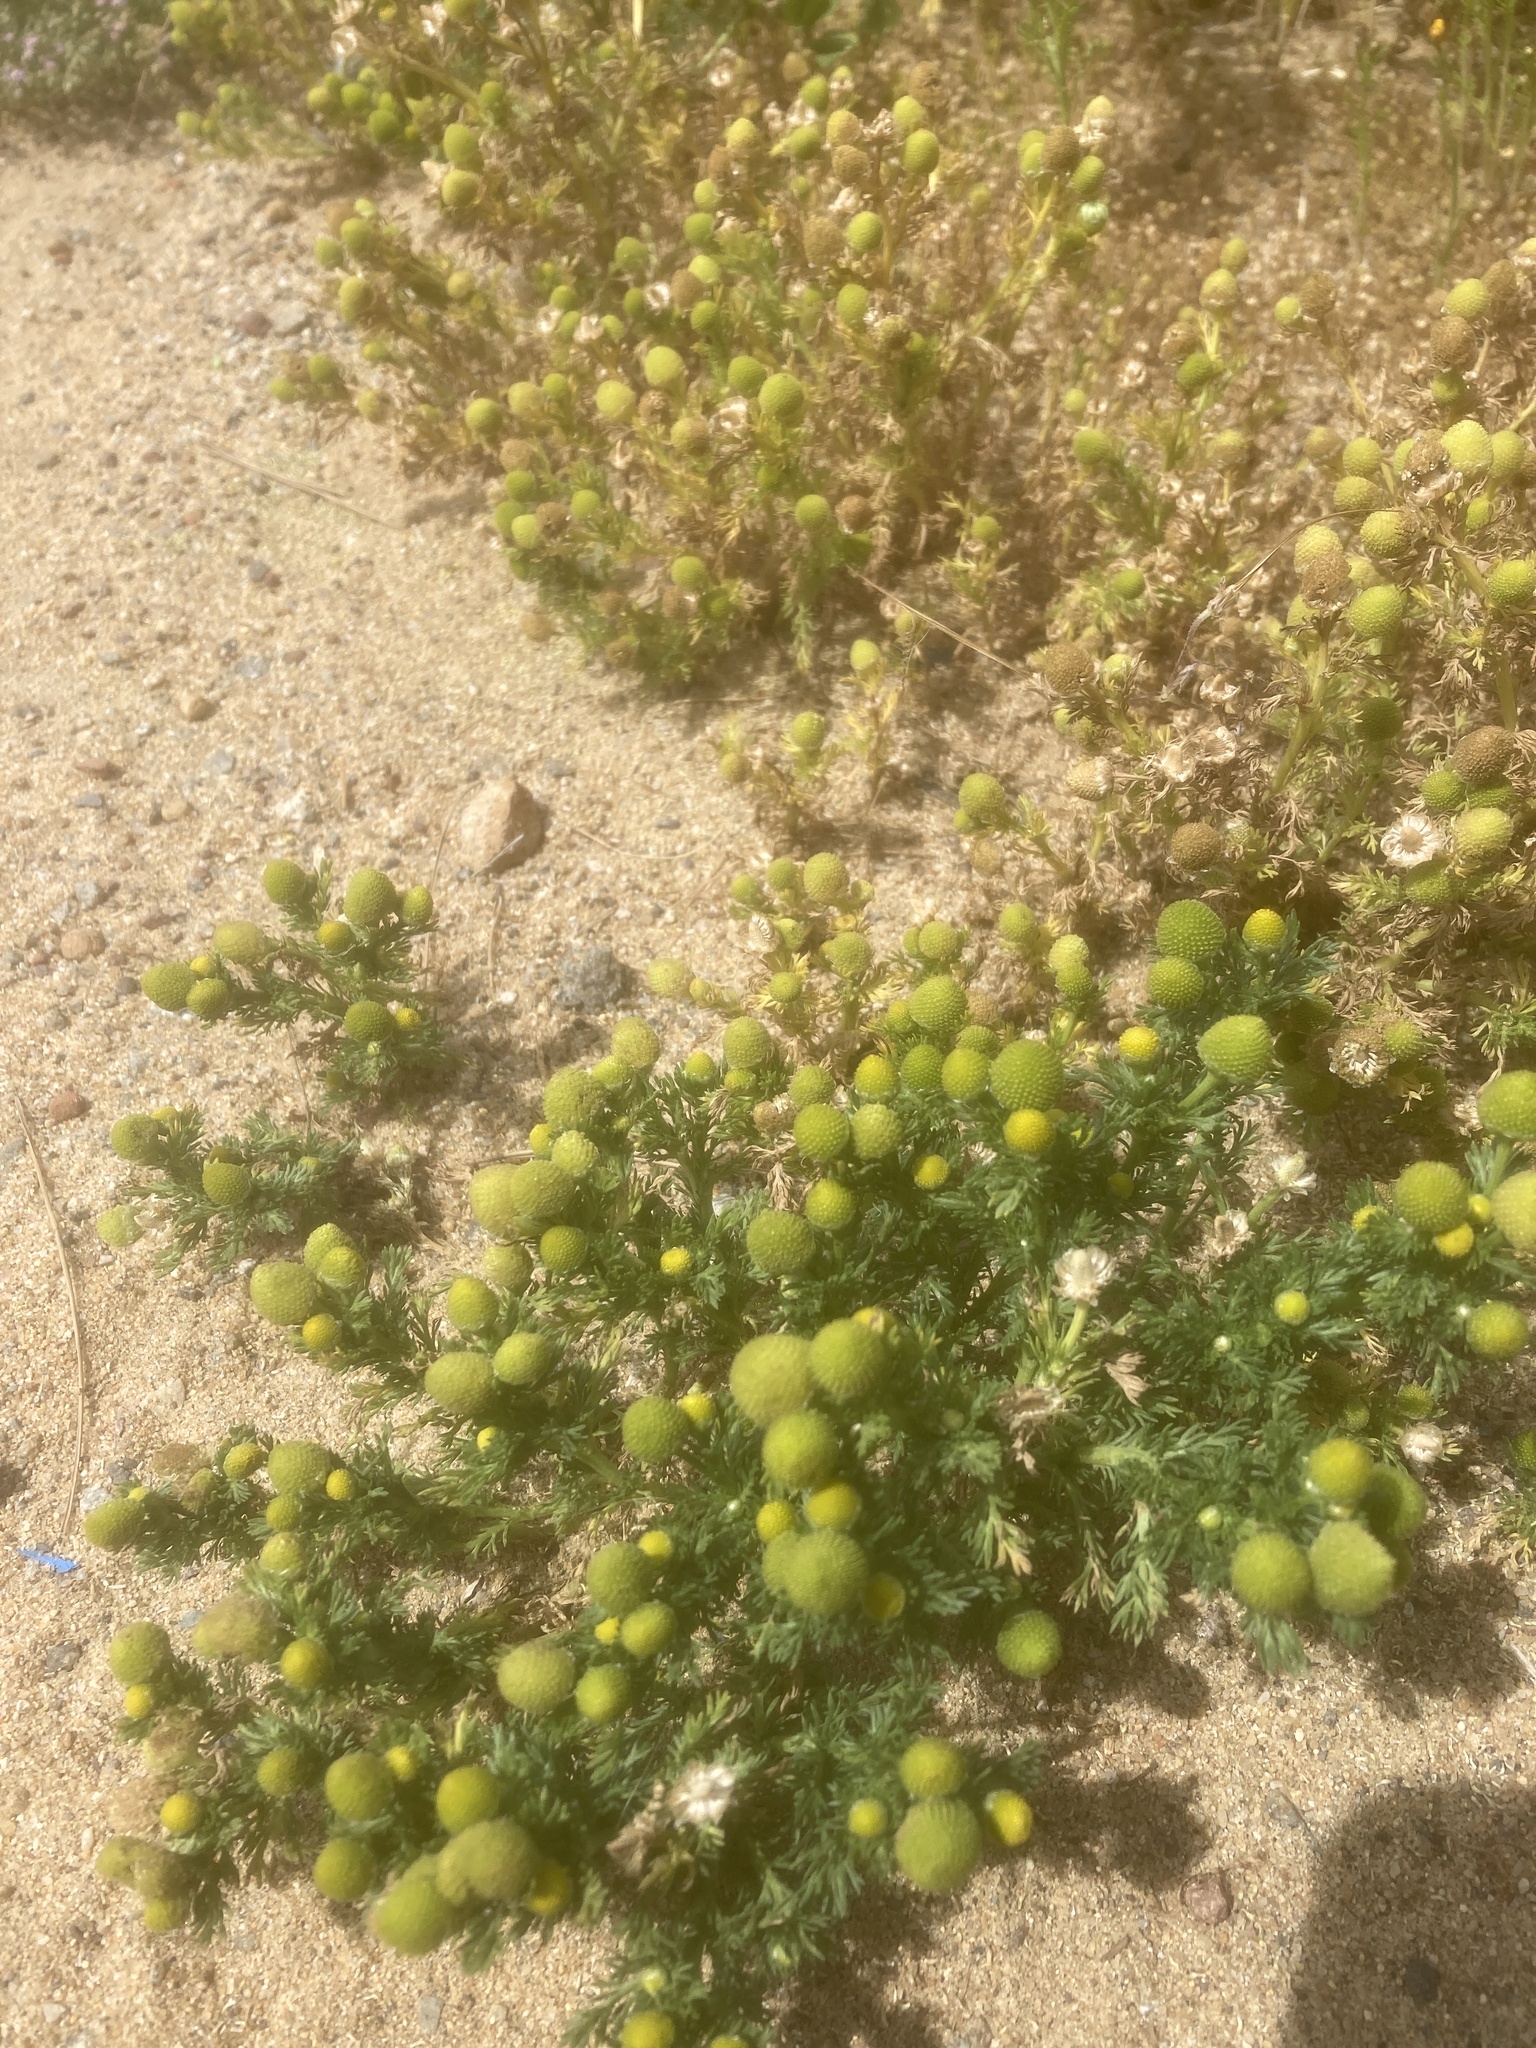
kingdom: Plantae
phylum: Tracheophyta
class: Magnoliopsida
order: Asterales
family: Asteraceae
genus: Matricaria
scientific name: Matricaria discoidea
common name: Disc mayweed
